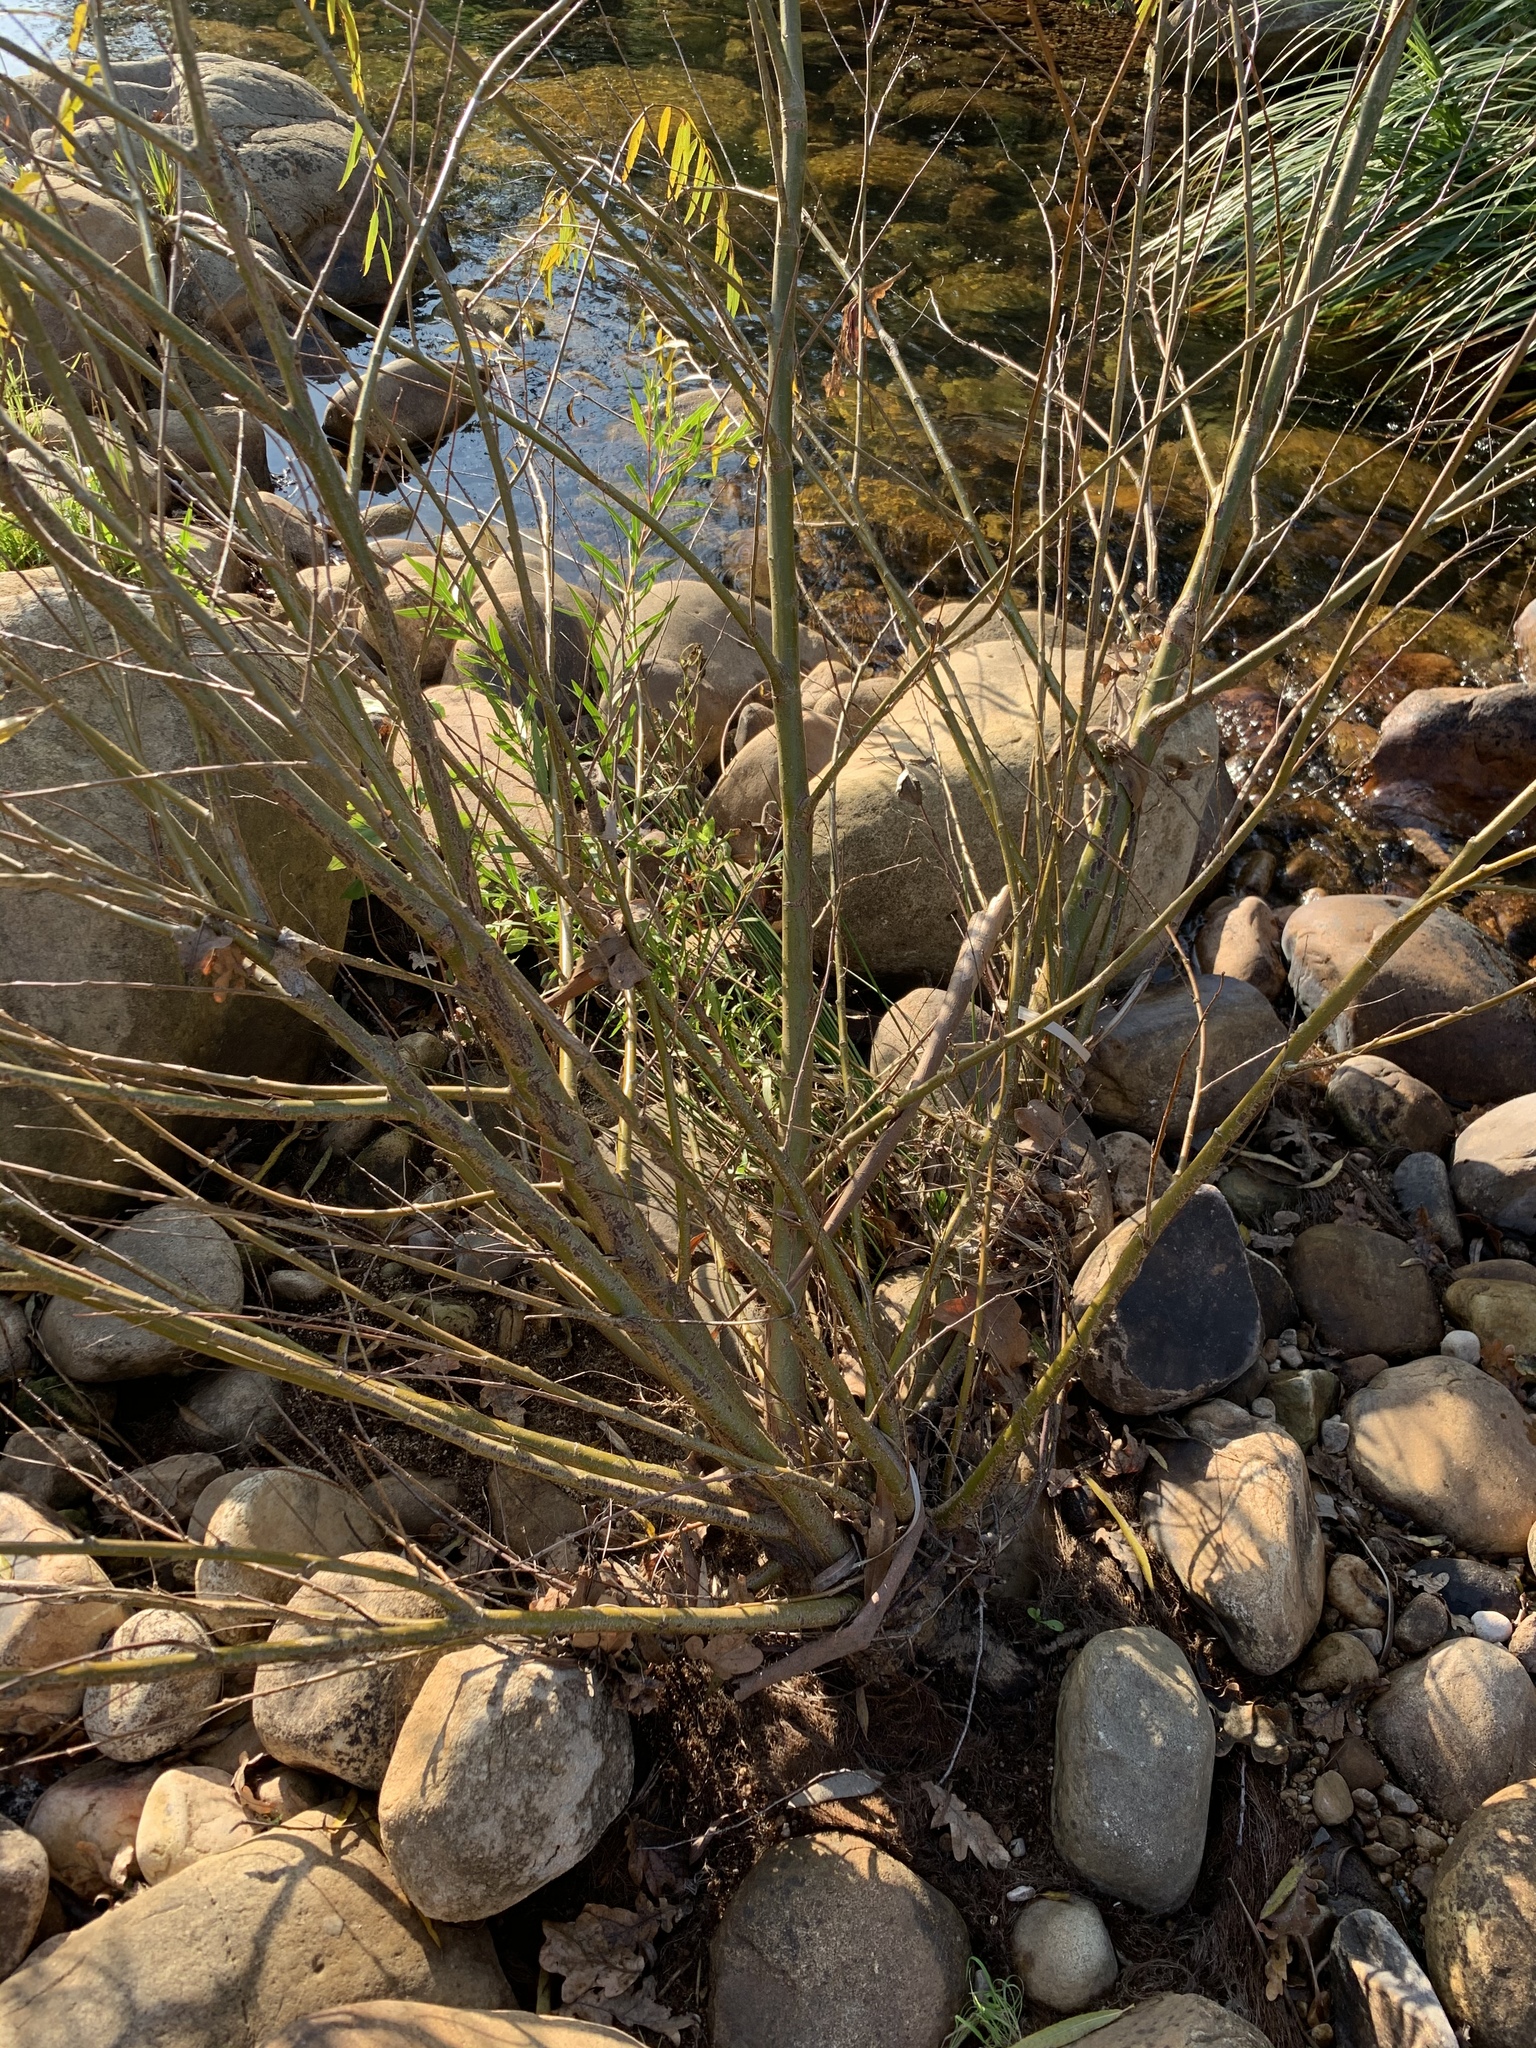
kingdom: Plantae
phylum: Tracheophyta
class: Magnoliopsida
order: Malpighiales
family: Salicaceae
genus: Salix
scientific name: Salix babylonica
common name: Weeping willow
